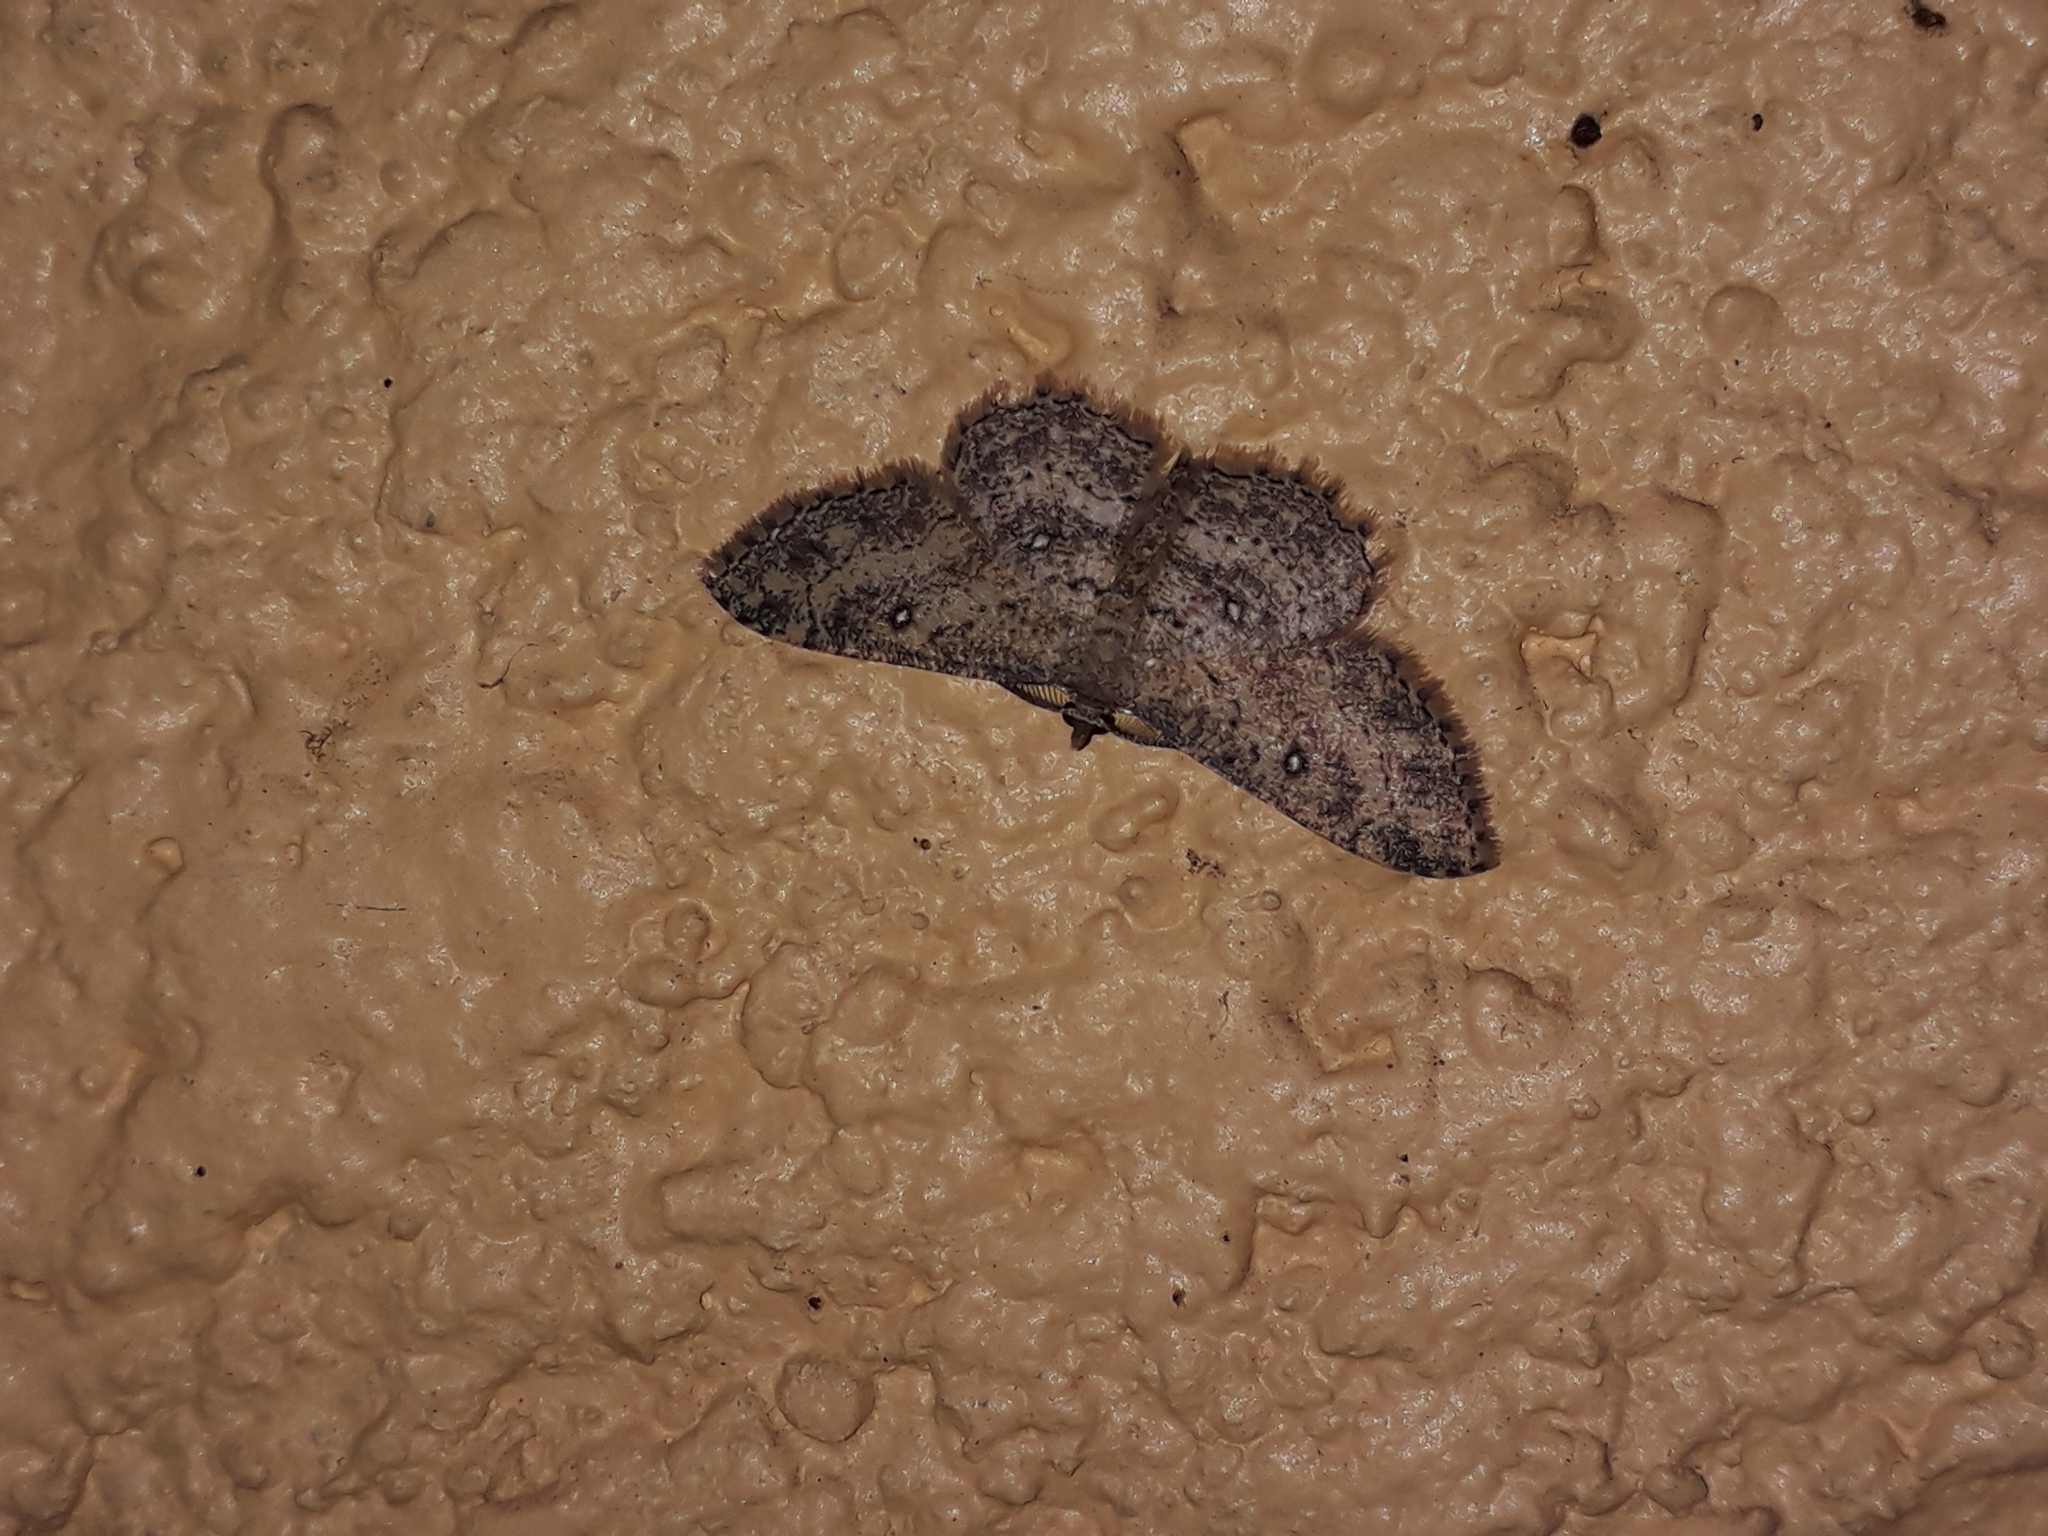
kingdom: Animalia
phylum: Arthropoda
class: Insecta
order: Lepidoptera
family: Geometridae
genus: Cyclophora
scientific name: Cyclophora nanaria
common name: Cankerworm
